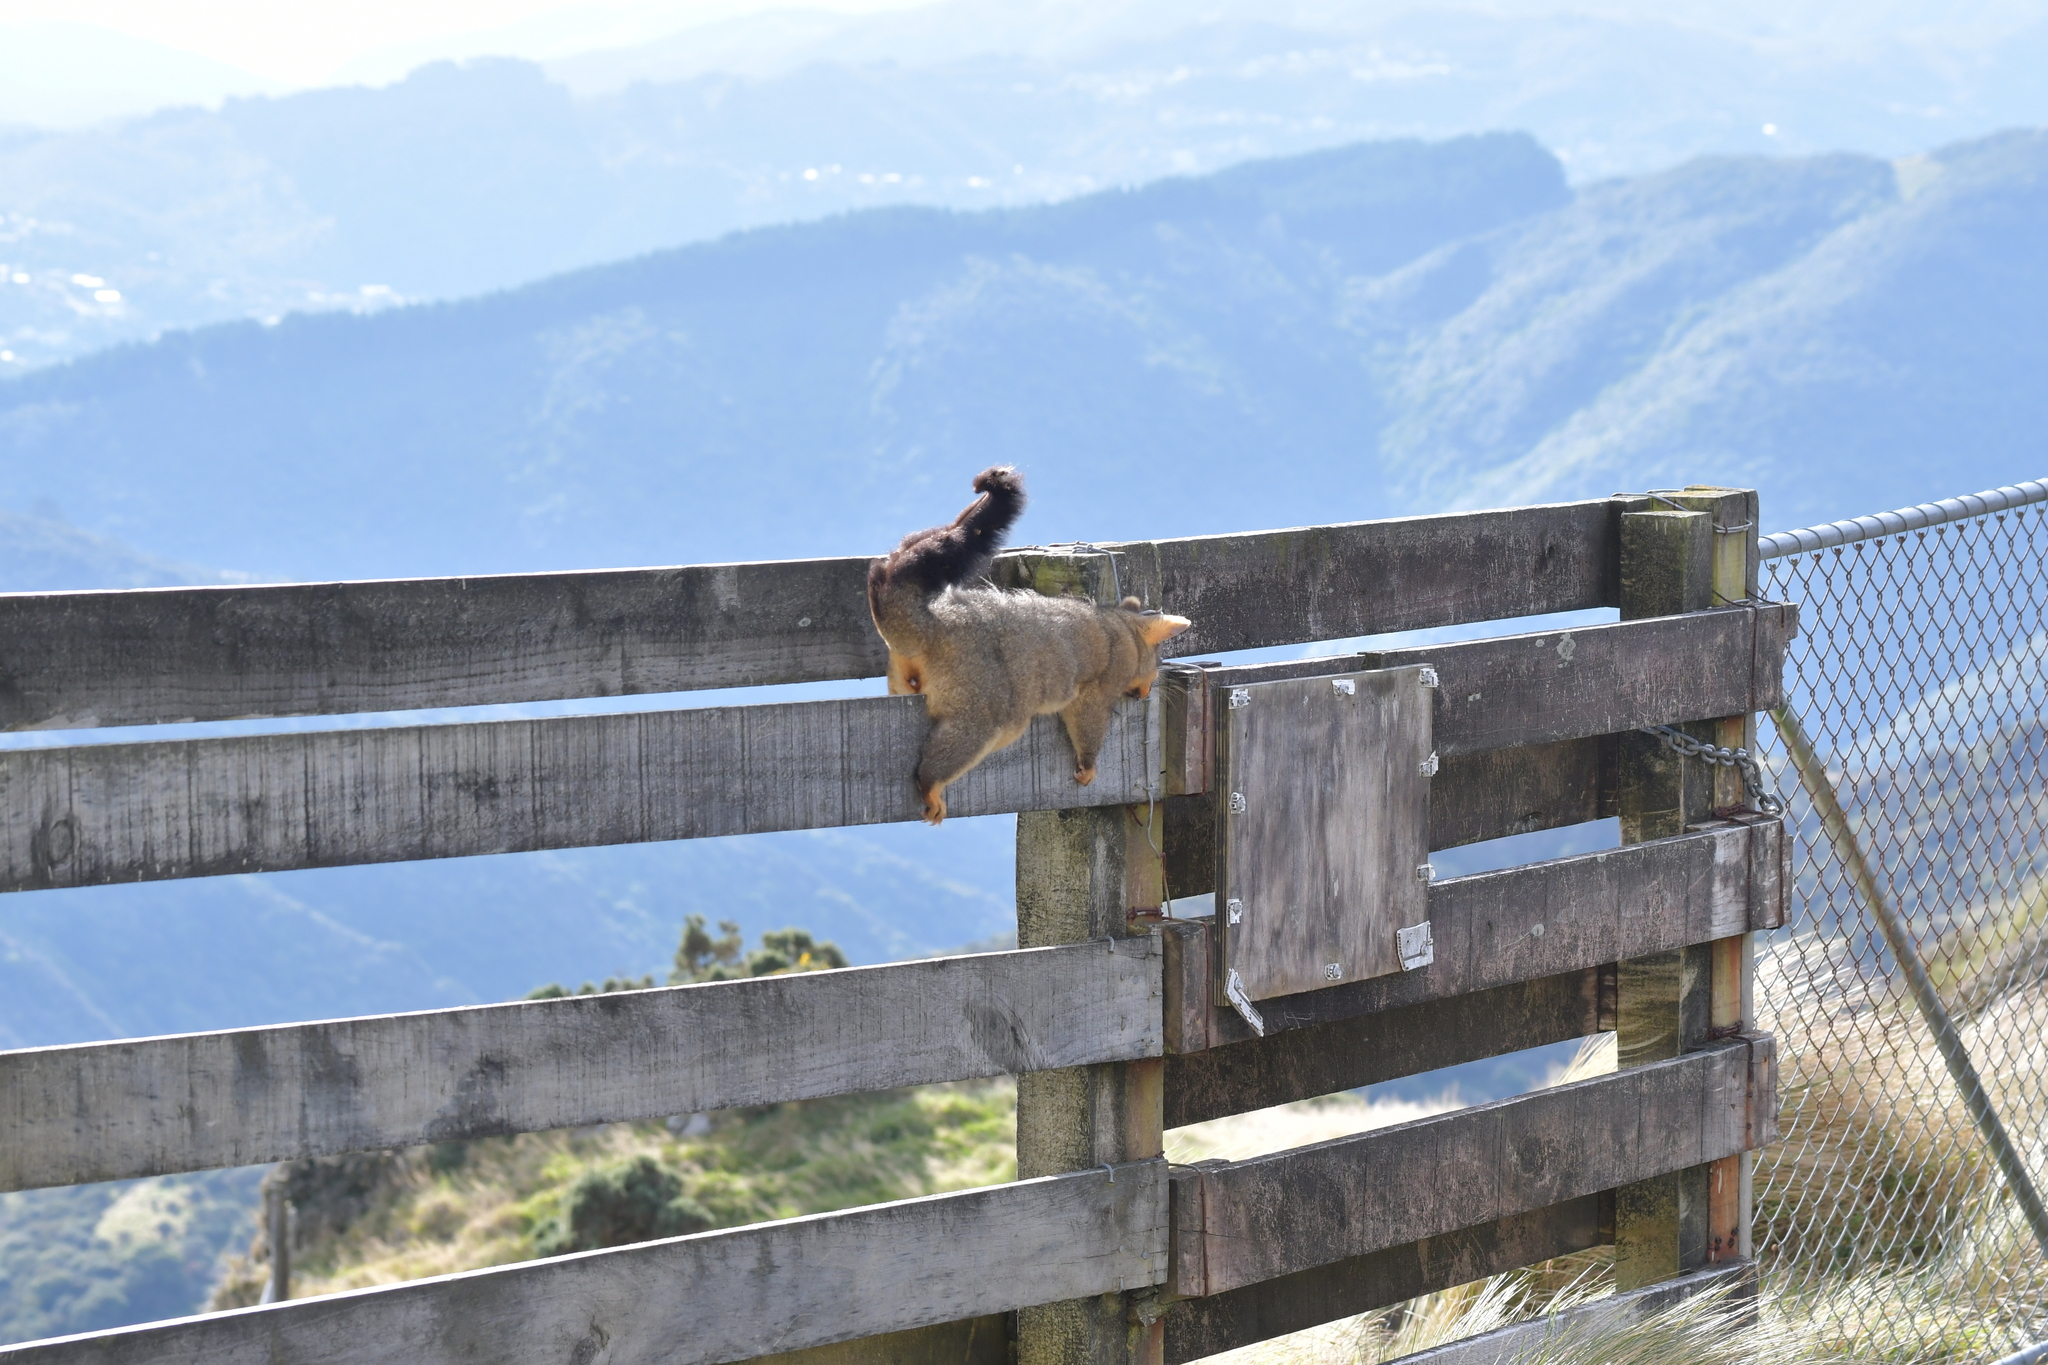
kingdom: Animalia
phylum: Chordata
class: Mammalia
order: Diprotodontia
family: Phalangeridae
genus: Trichosurus
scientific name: Trichosurus vulpecula
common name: Common brushtail
